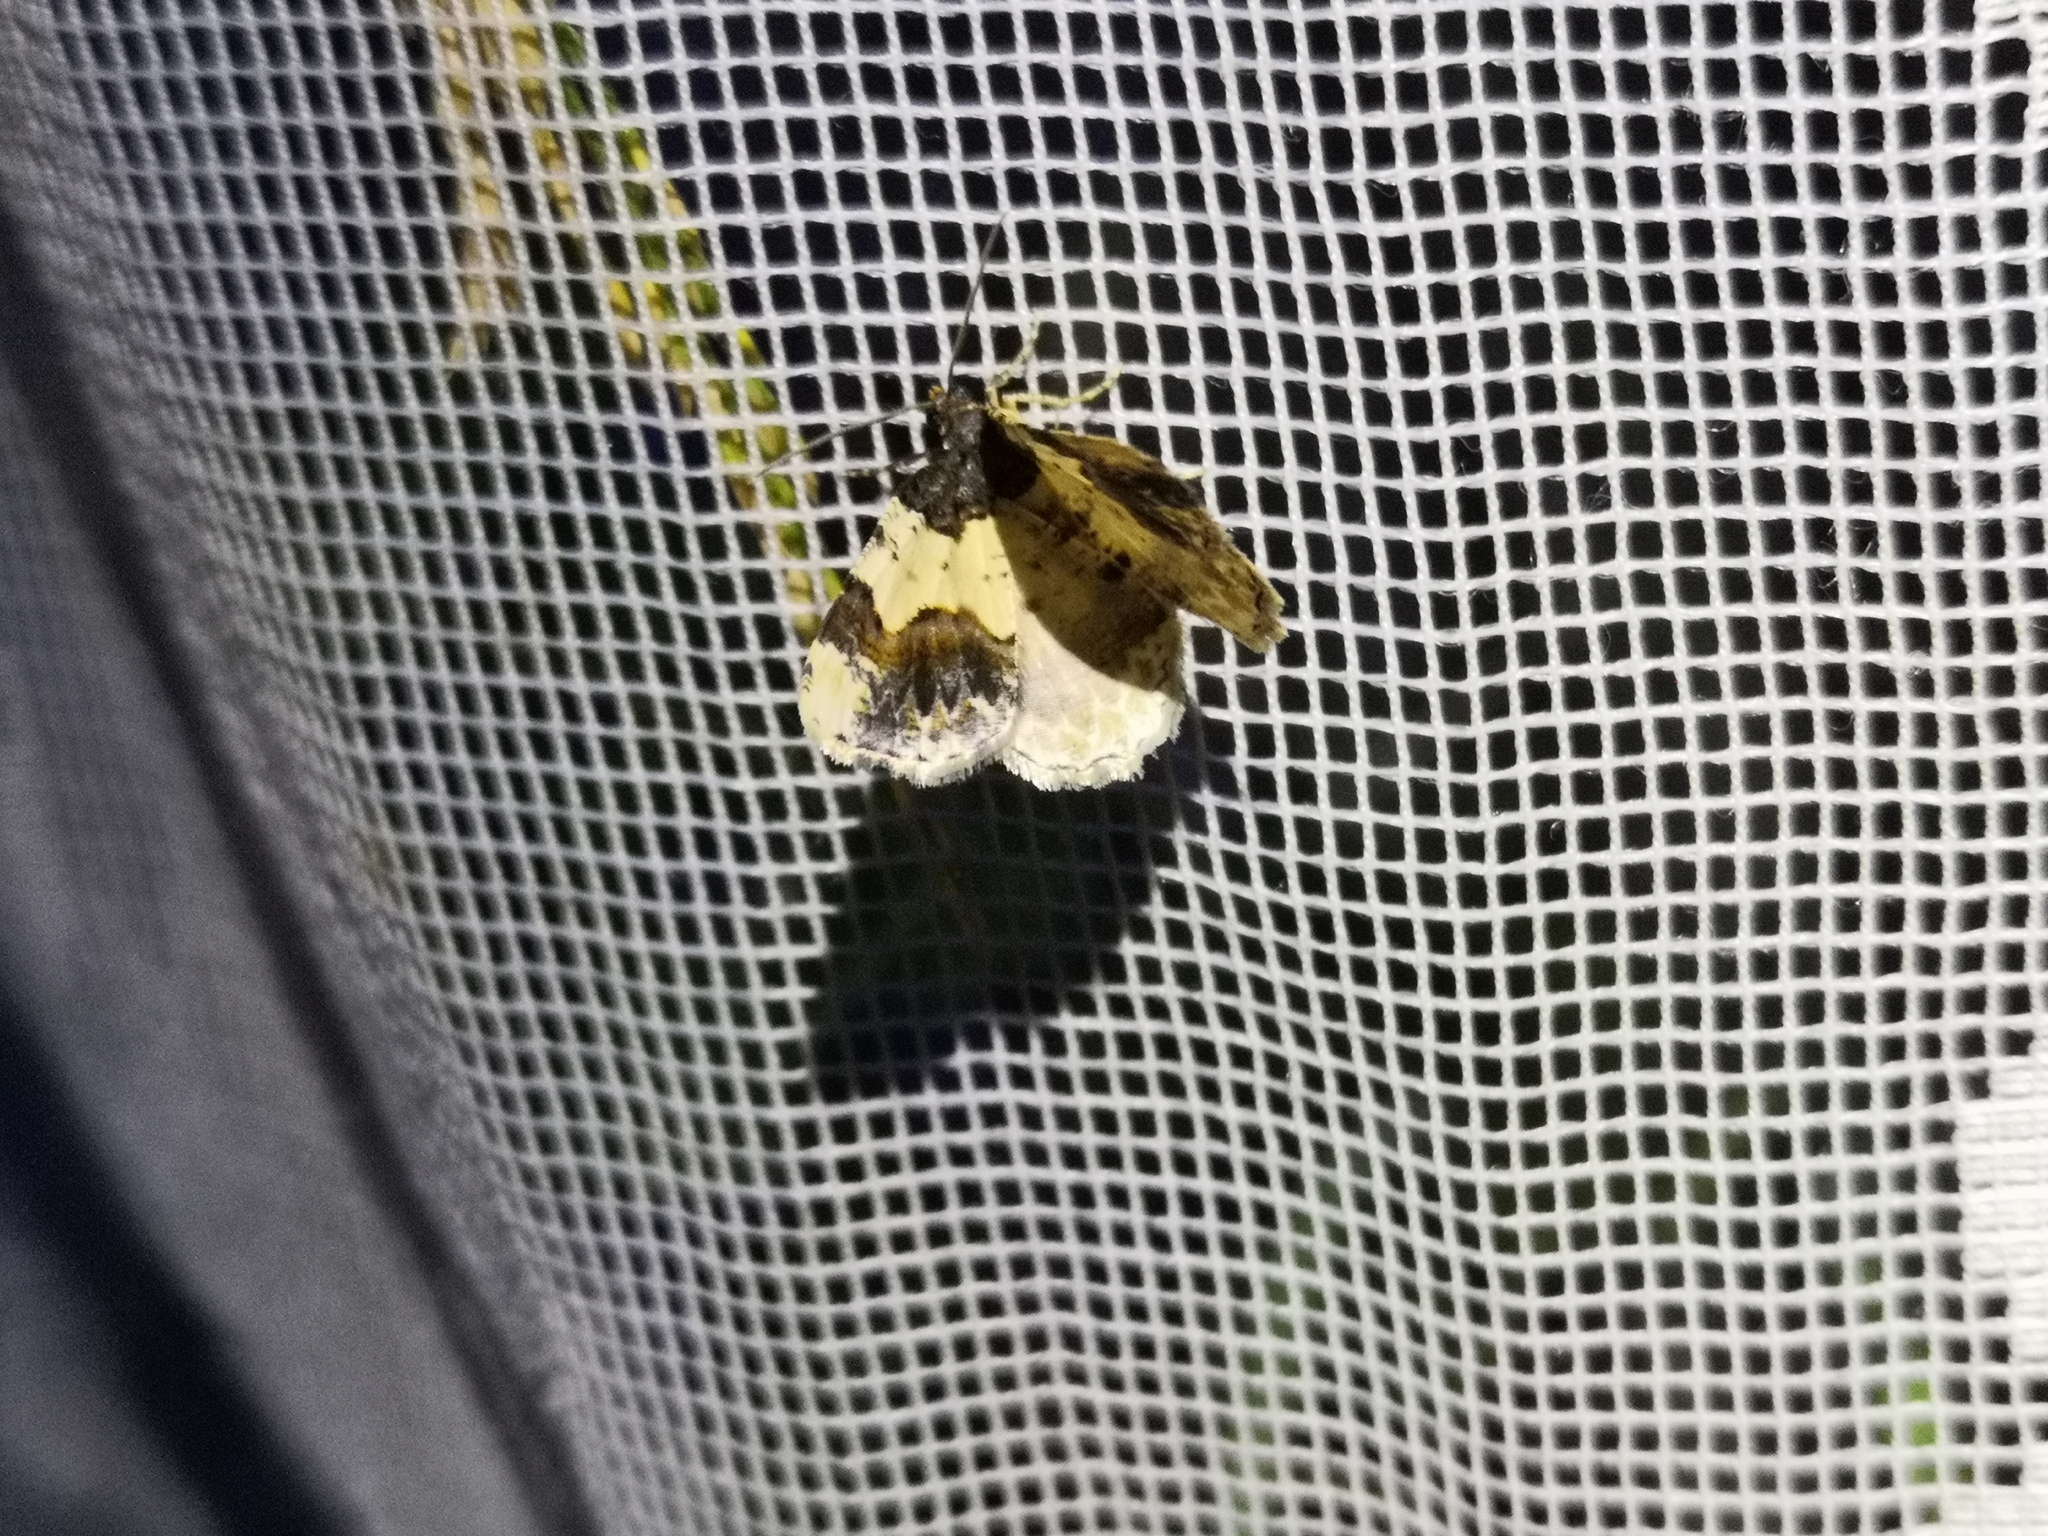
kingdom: Animalia
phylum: Arthropoda
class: Insecta
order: Lepidoptera
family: Geometridae
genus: Ligdia
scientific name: Ligdia adustata
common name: Scorched carpet
